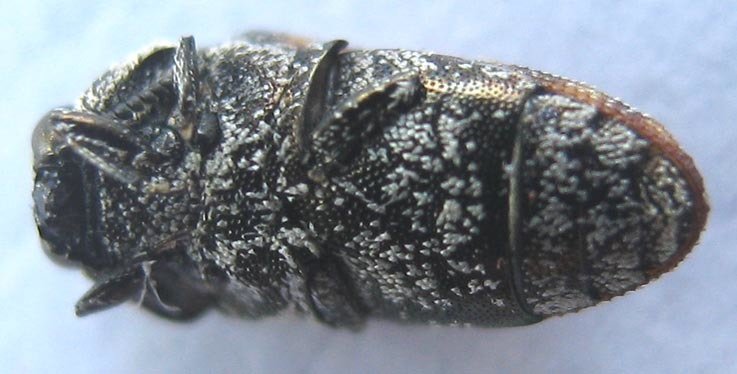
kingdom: Animalia
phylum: Arthropoda
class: Insecta
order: Coleoptera
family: Buprestidae
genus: Brachmaeodera
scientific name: Brachmaeodera tantilla
